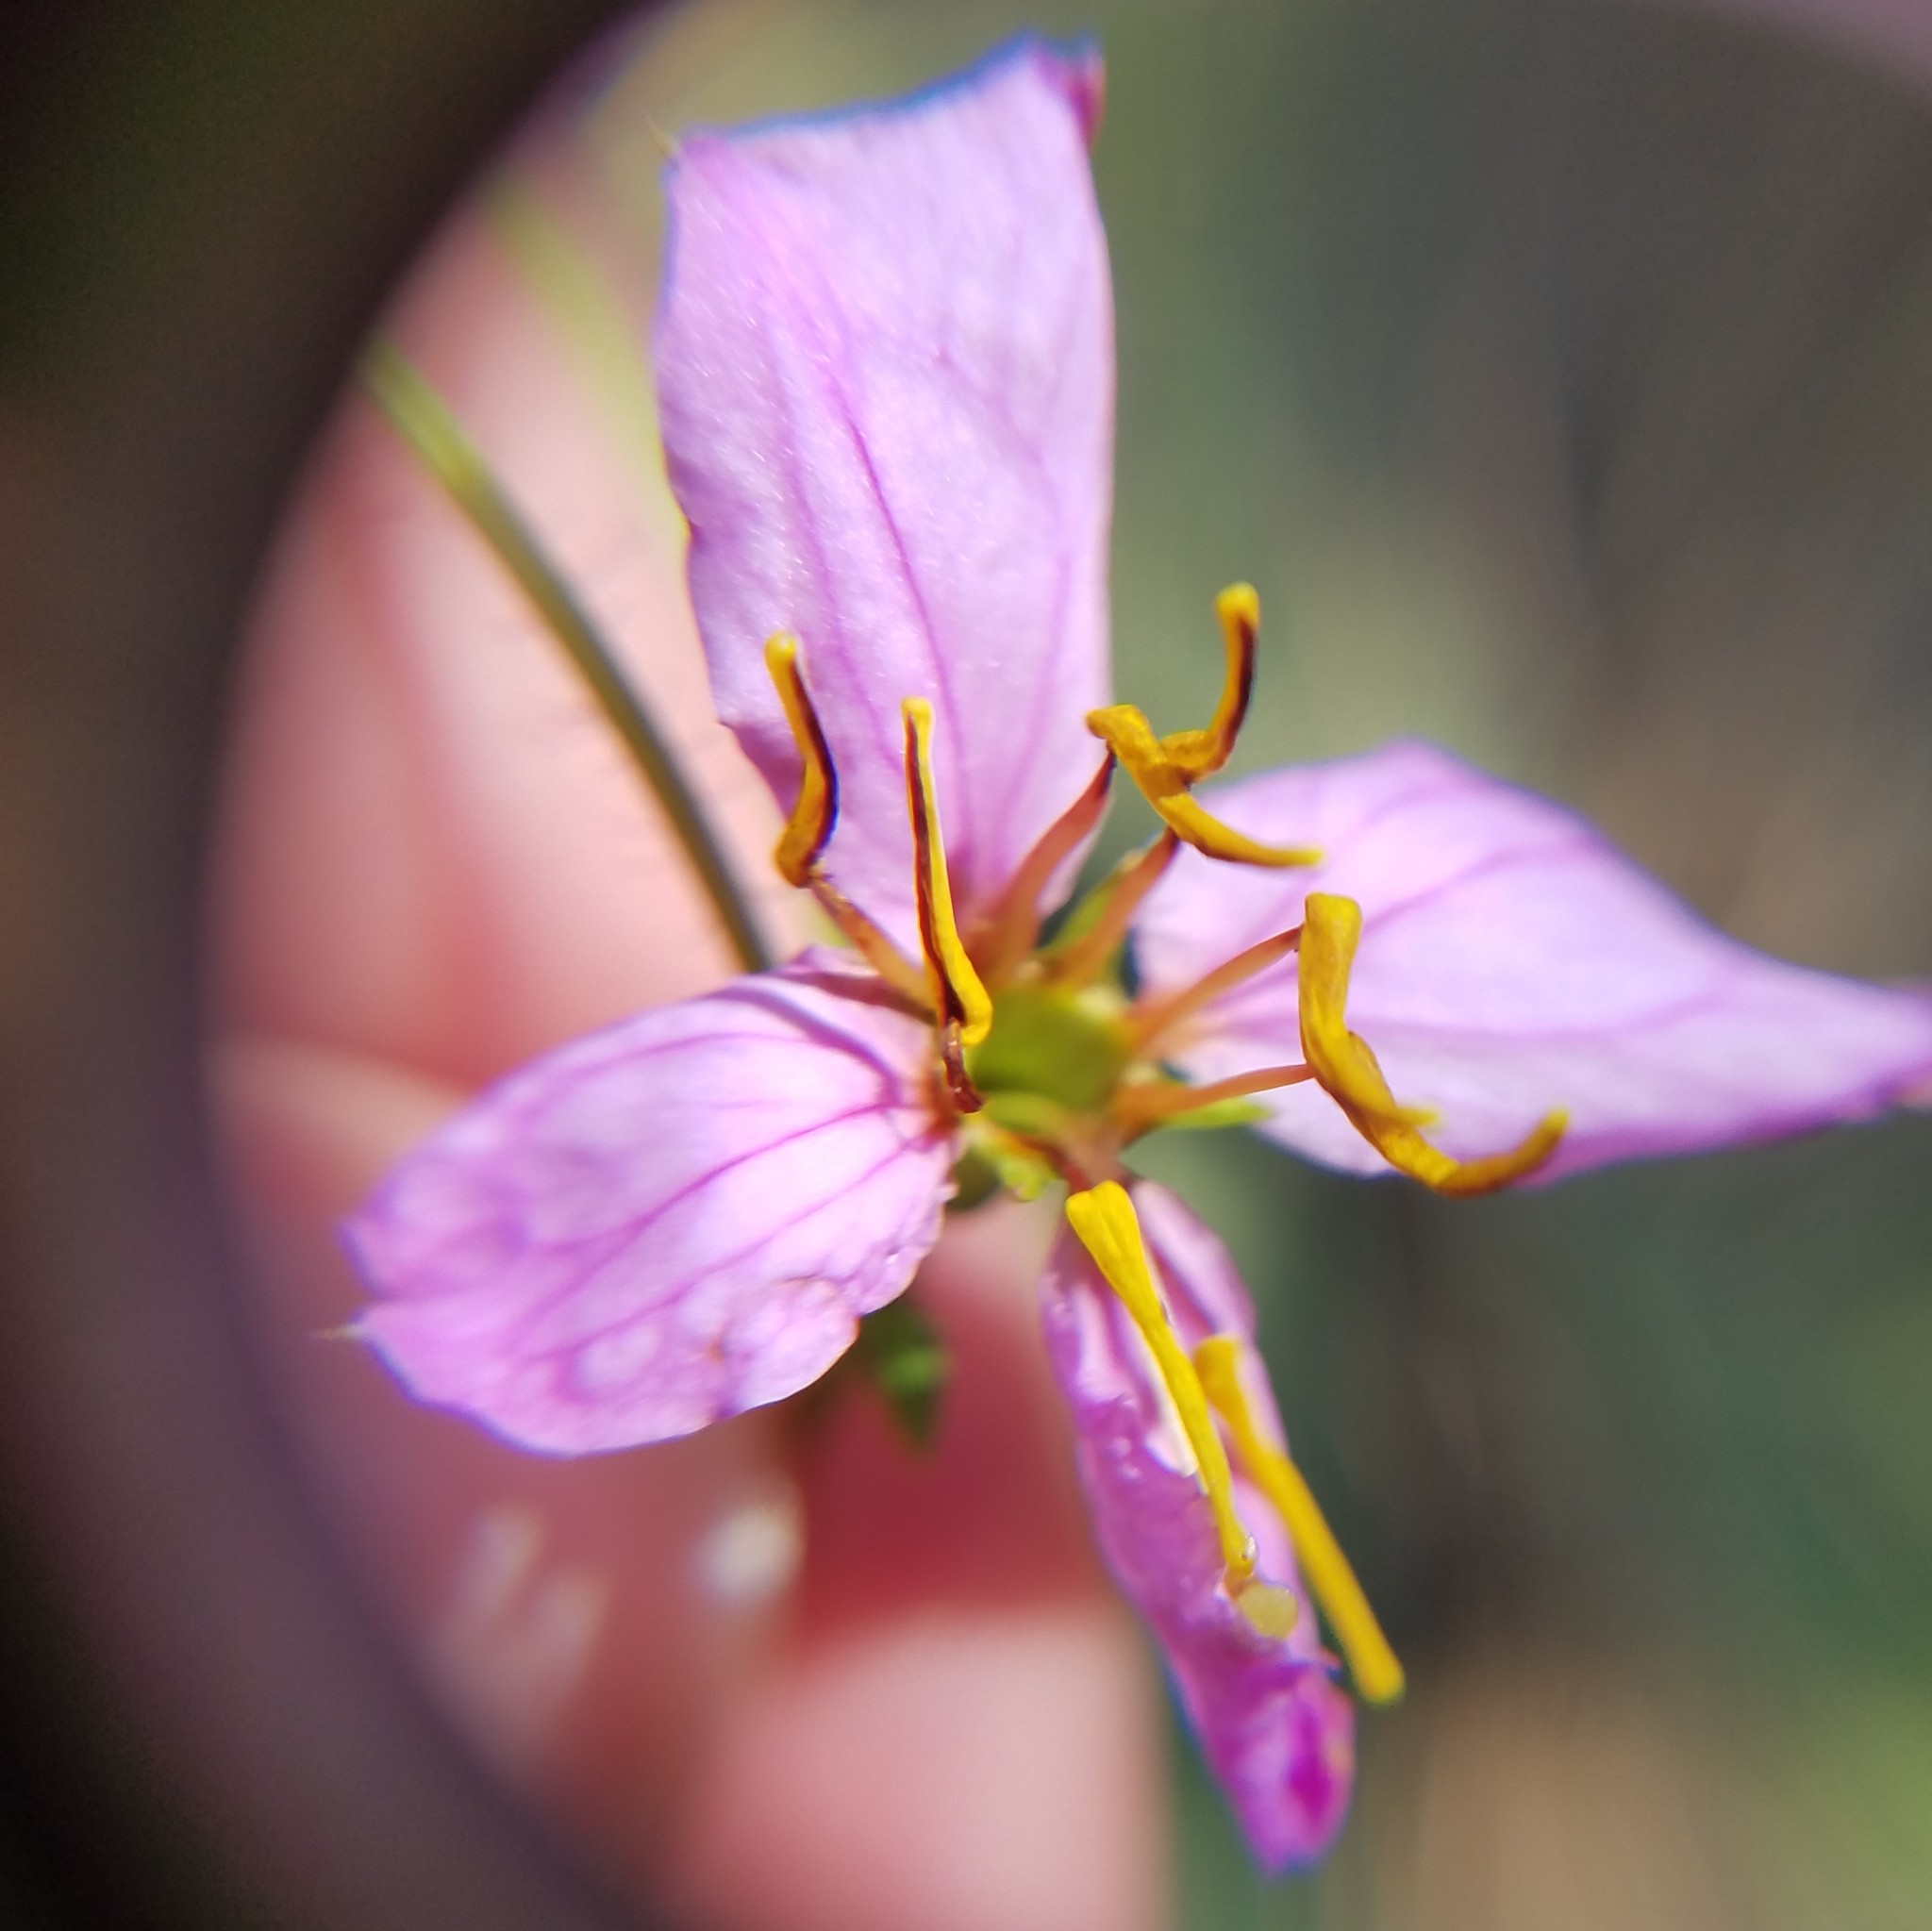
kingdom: Plantae
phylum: Tracheophyta
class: Magnoliopsida
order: Myrtales
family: Melastomataceae
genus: Rhexia
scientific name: Rhexia mariana
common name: Dull meadow-pitcher
